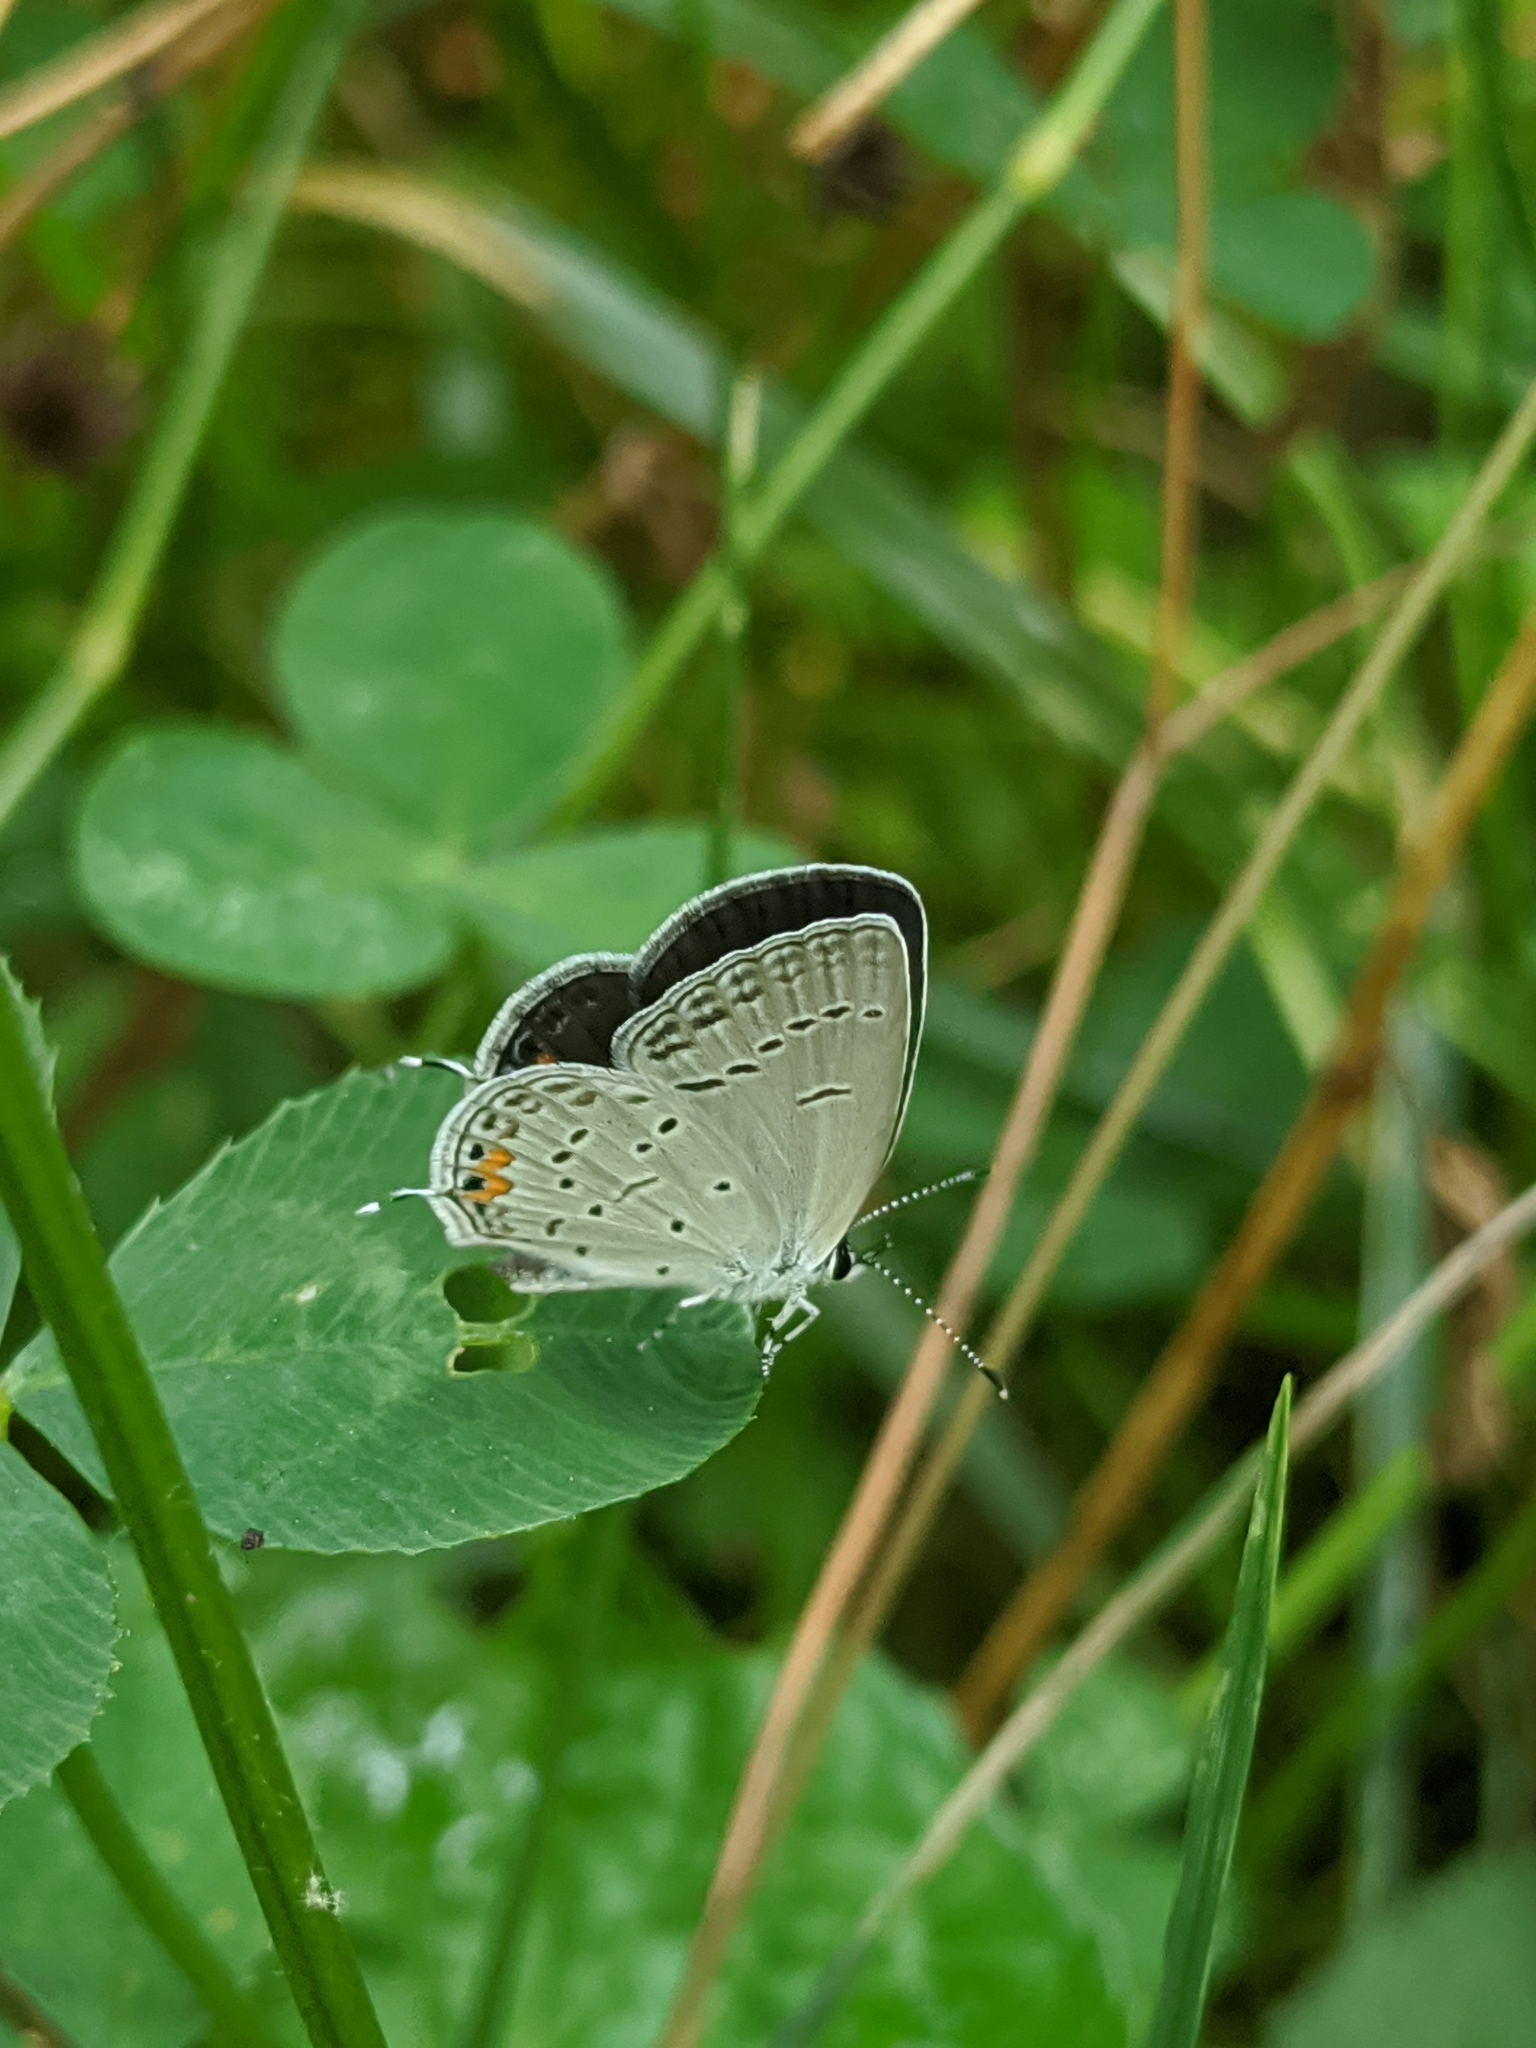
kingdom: Animalia
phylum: Arthropoda
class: Insecta
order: Lepidoptera
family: Lycaenidae
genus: Elkalyce
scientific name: Elkalyce comyntas
